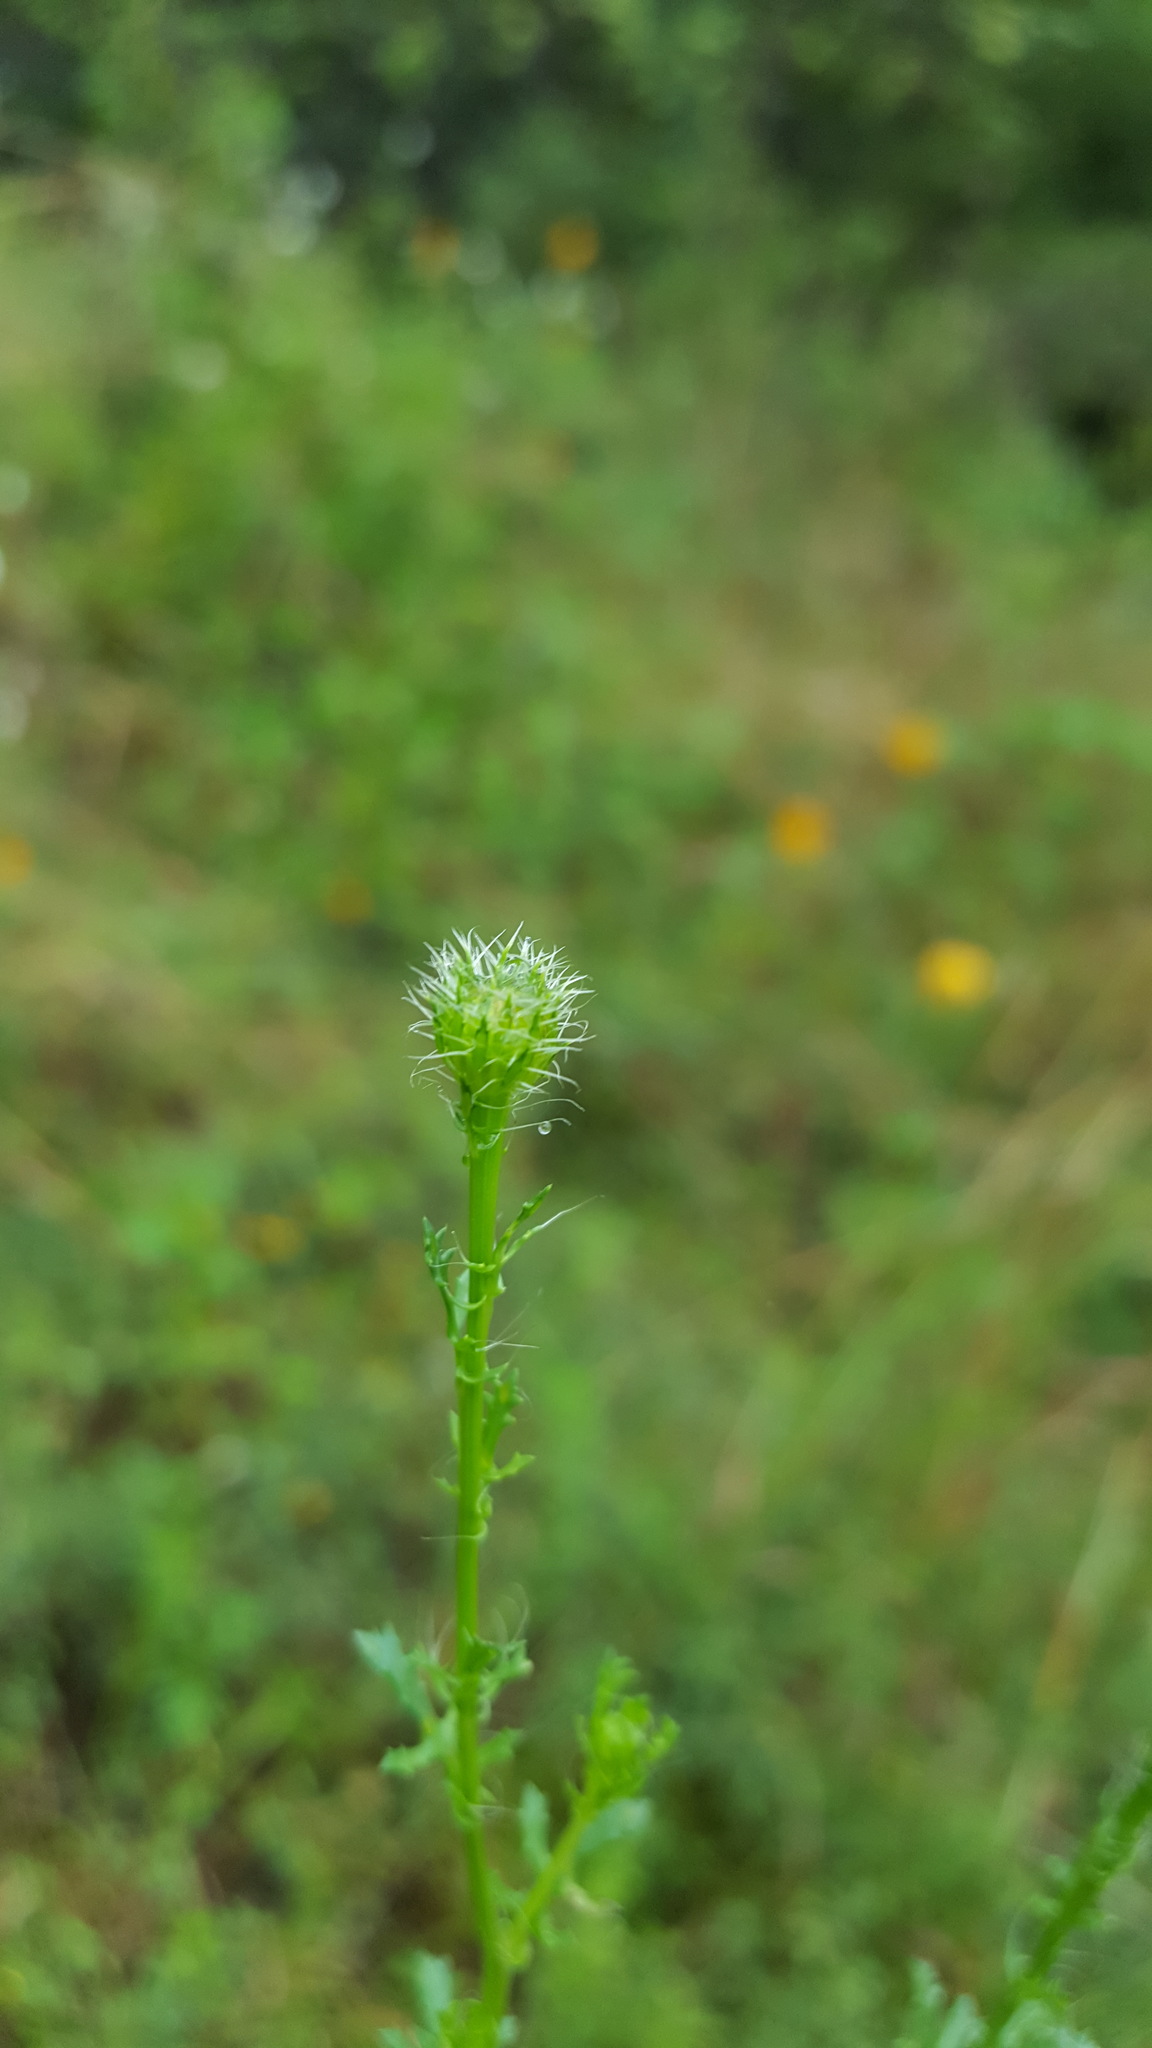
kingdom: Plantae
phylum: Tracheophyta
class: Magnoliopsida
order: Asterales
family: Asteraceae
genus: Adenophyllum
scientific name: Adenophyllum porophyllum
